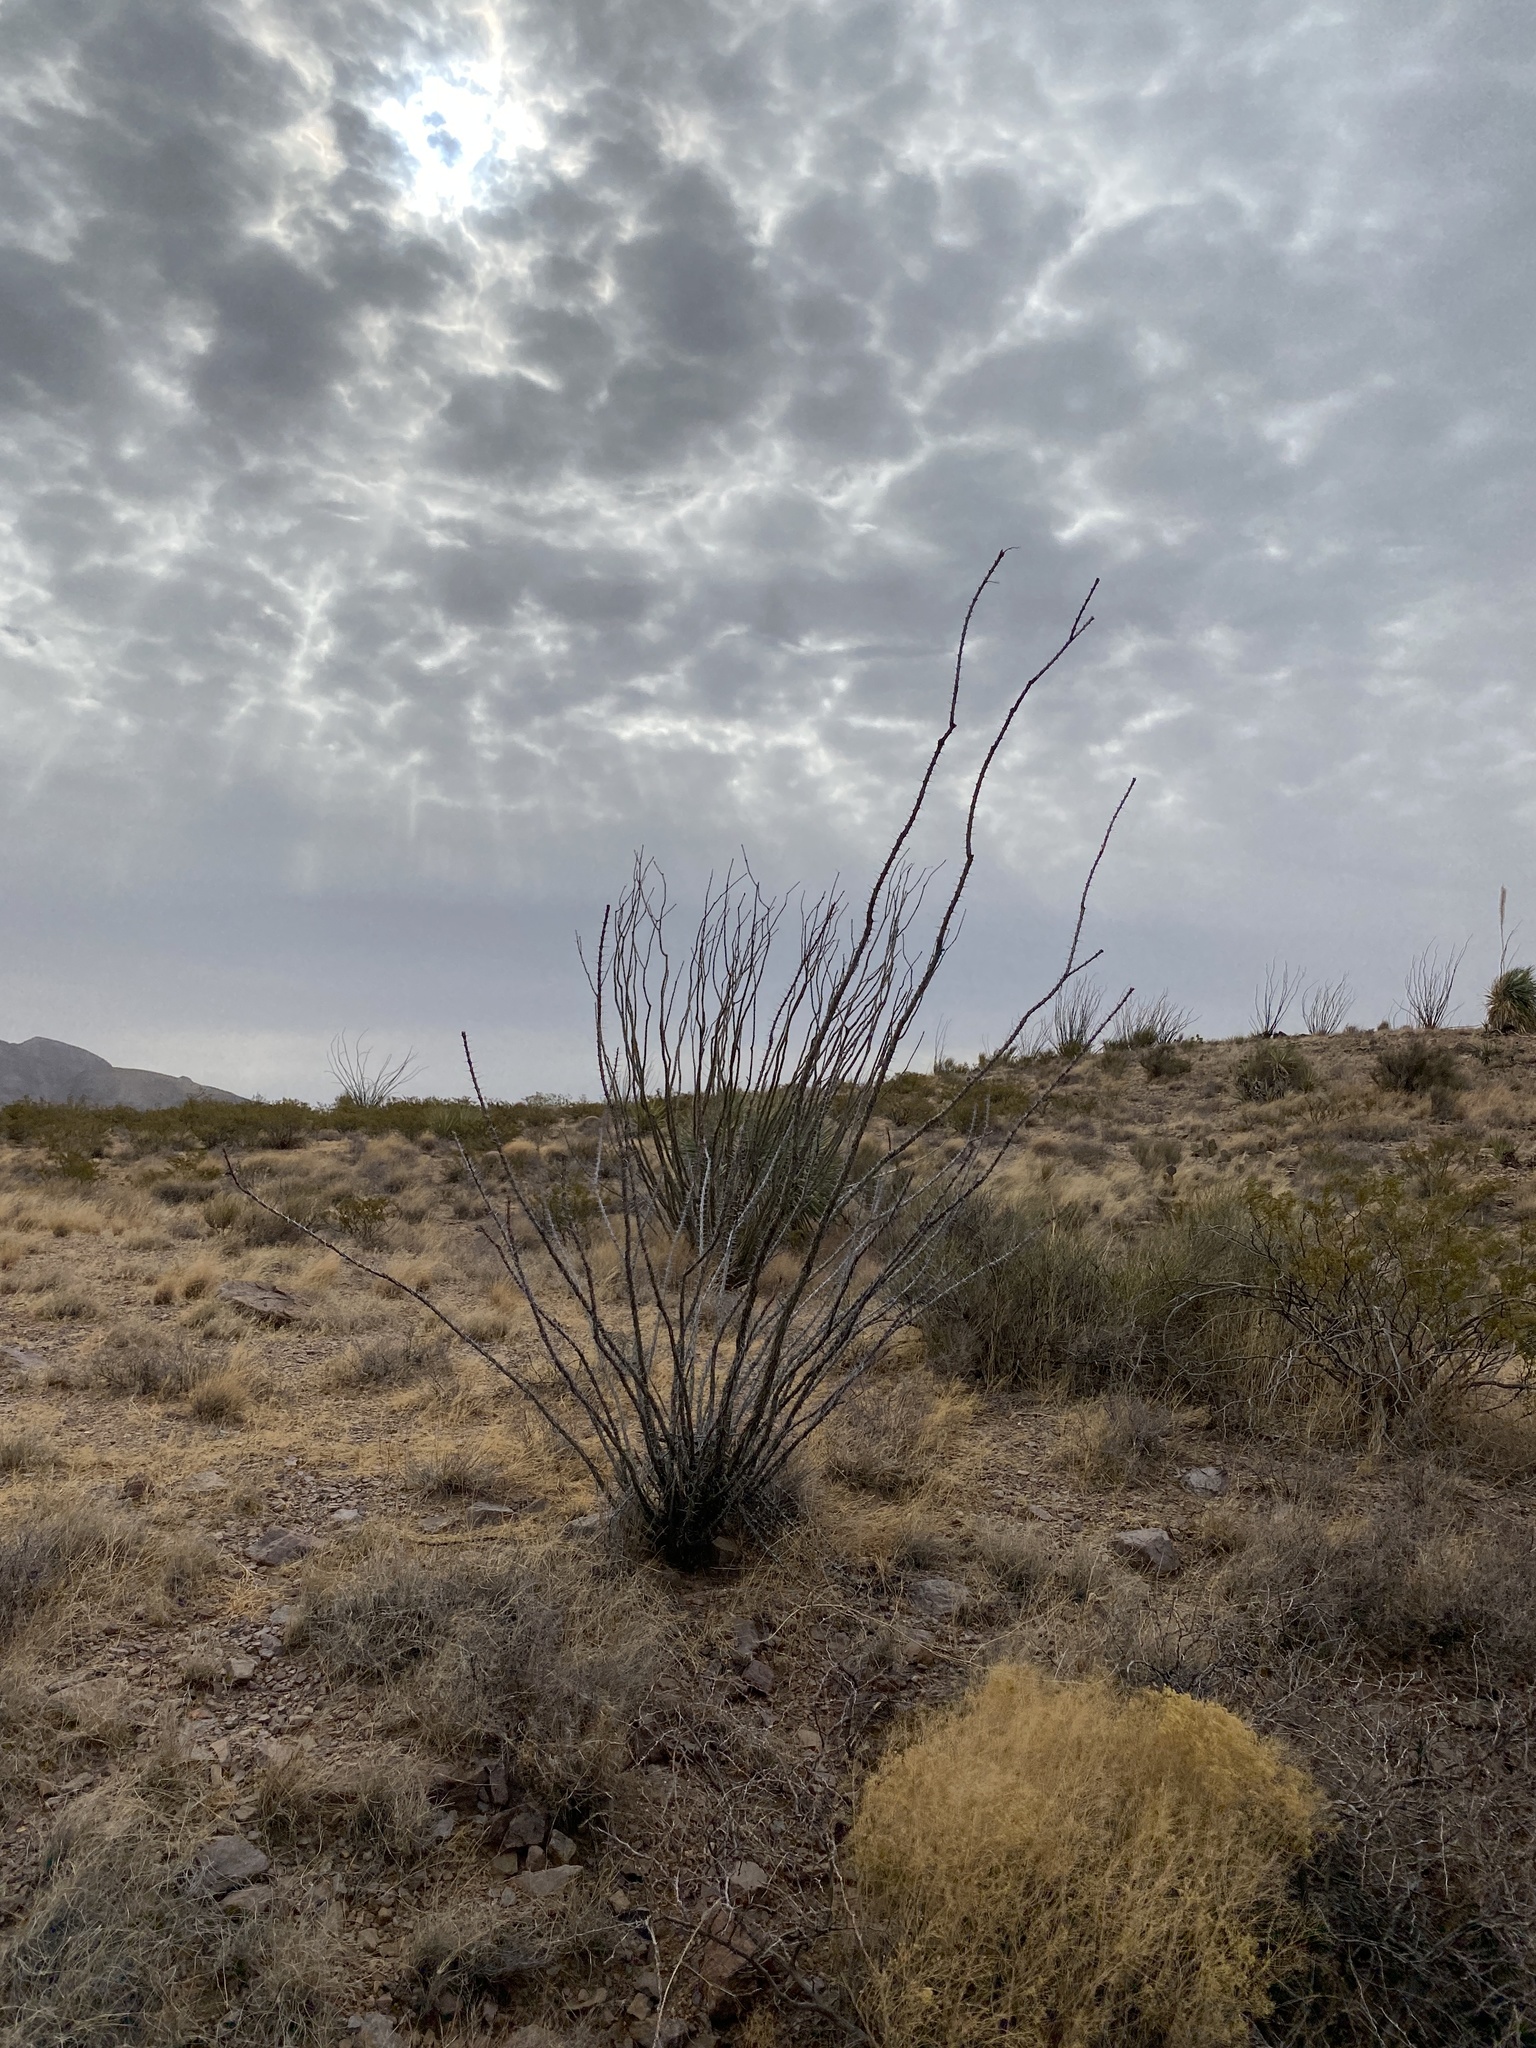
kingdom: Plantae
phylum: Tracheophyta
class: Magnoliopsida
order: Ericales
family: Fouquieriaceae
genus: Fouquieria
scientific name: Fouquieria splendens
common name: Vine-cactus
